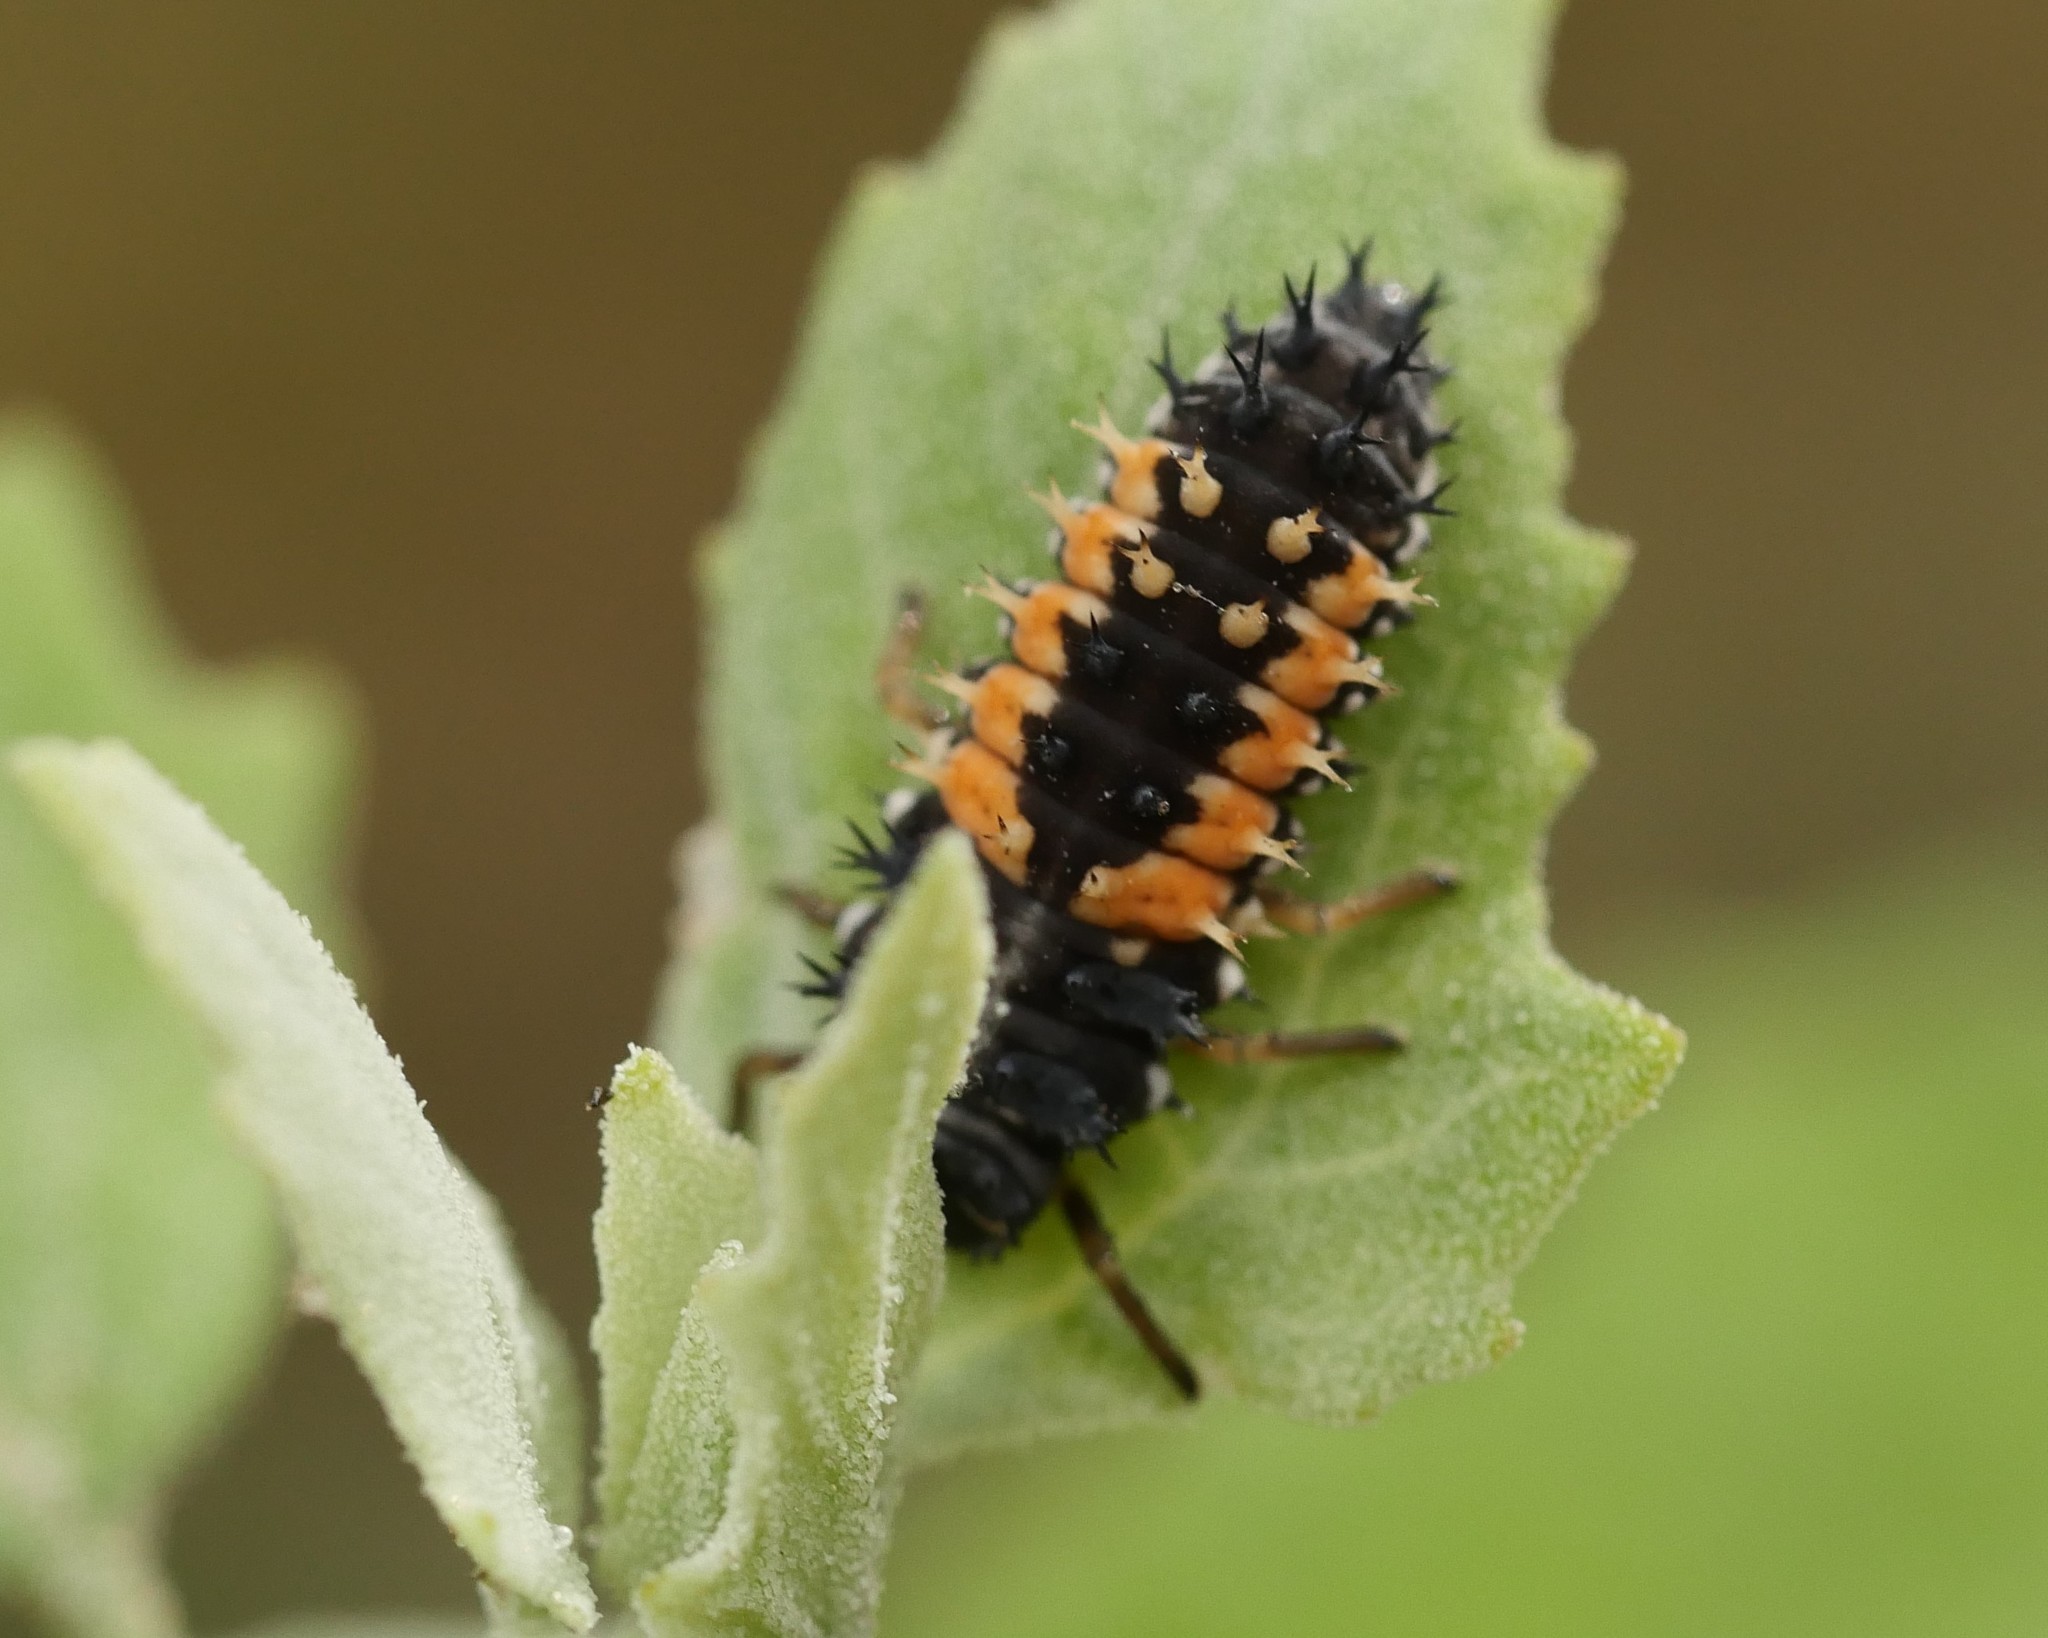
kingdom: Animalia
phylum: Arthropoda
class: Insecta
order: Coleoptera
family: Coccinellidae
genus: Harmonia
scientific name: Harmonia axyridis
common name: Harlequin ladybird
